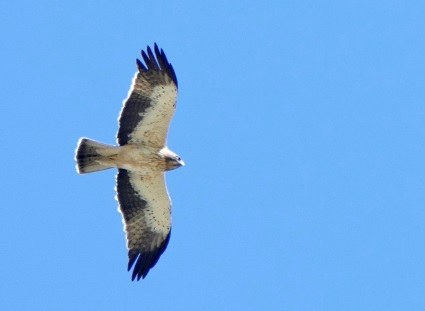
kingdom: Animalia
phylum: Chordata
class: Aves
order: Accipitriformes
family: Accipitridae
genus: Hieraaetus
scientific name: Hieraaetus pennatus
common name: Booted eagle
